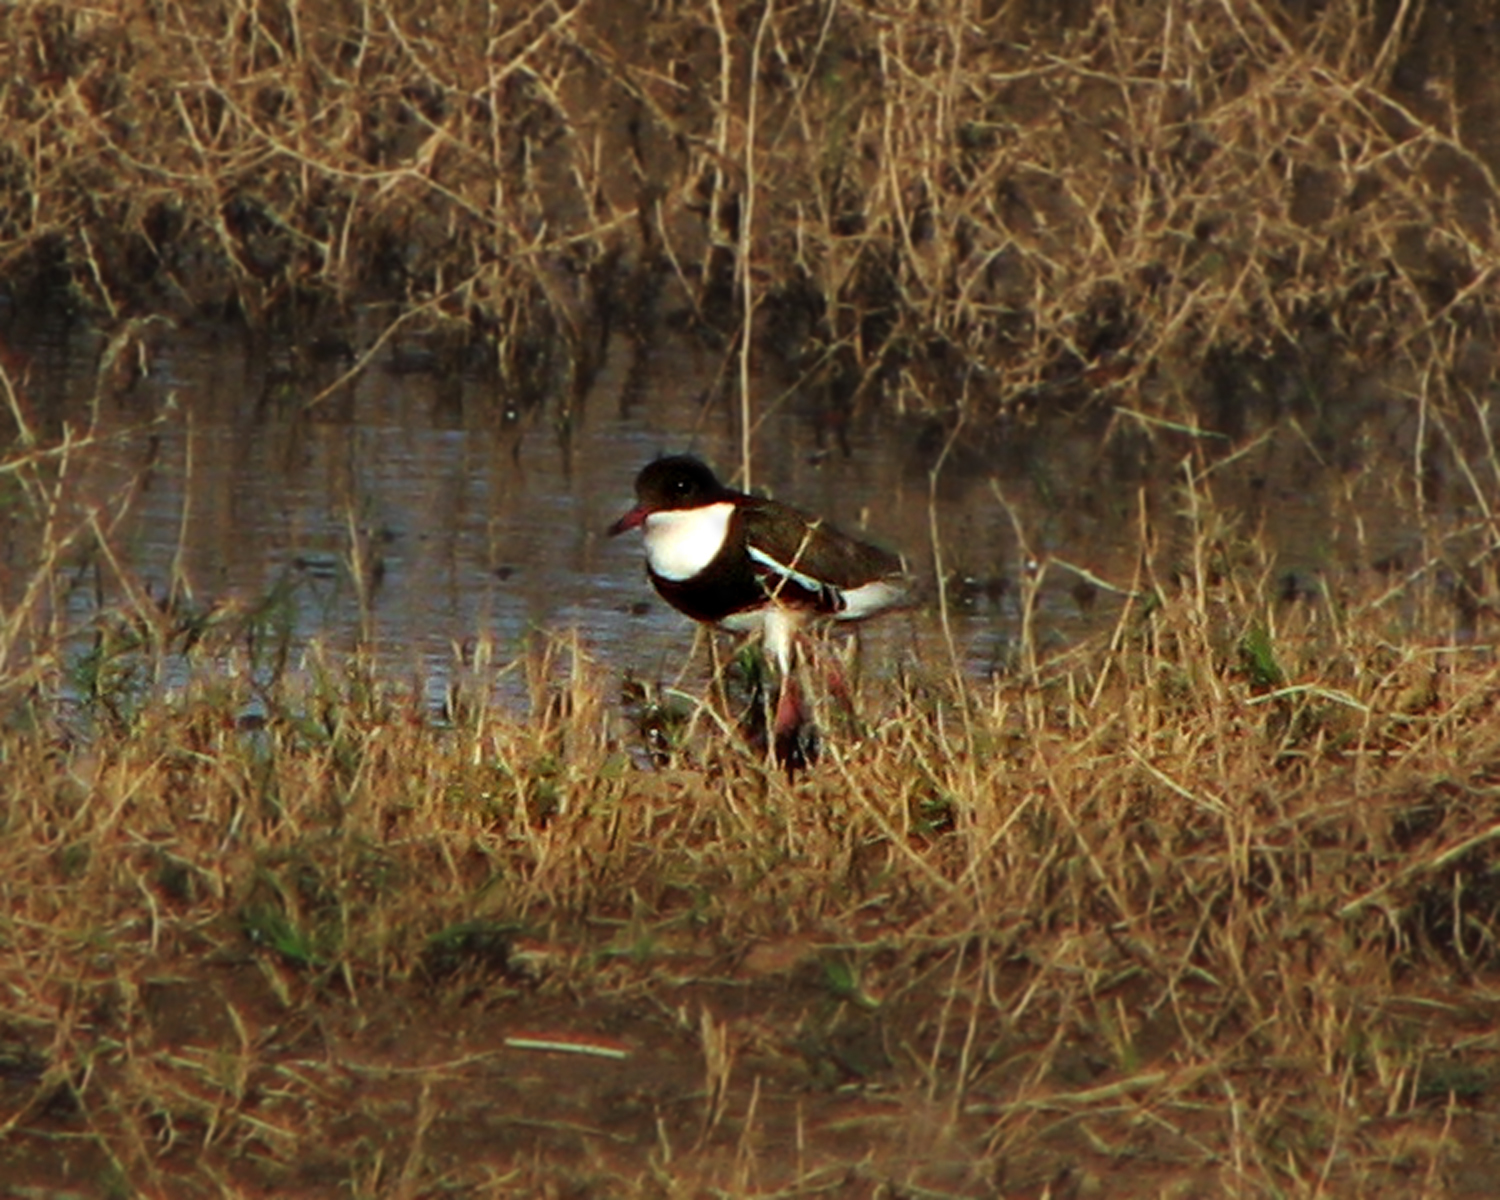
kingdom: Animalia
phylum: Chordata
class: Aves
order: Charadriiformes
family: Charadriidae
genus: Erythrogonys
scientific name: Erythrogonys cinctus
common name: Red-kneed dotterel
